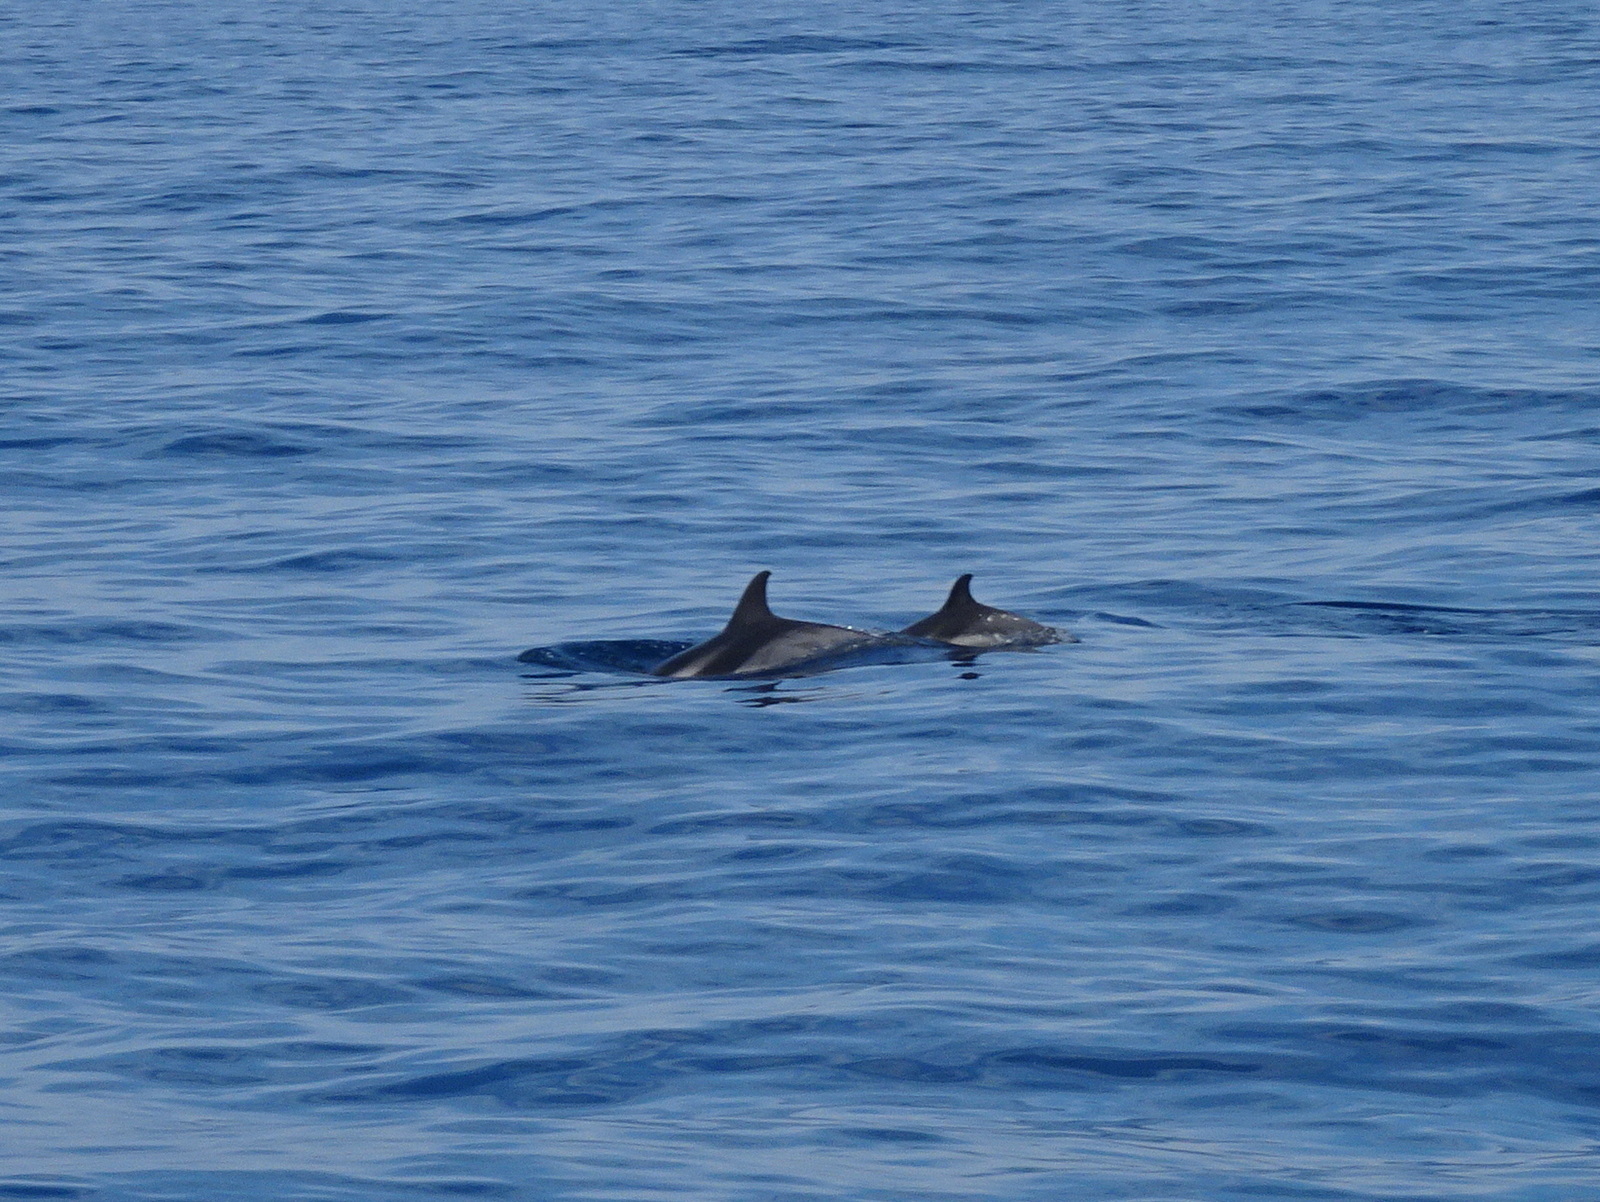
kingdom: Animalia
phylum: Chordata
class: Mammalia
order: Cetacea
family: Delphinidae
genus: Stenella
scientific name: Stenella coeruleoalba
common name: Striped dolphin
